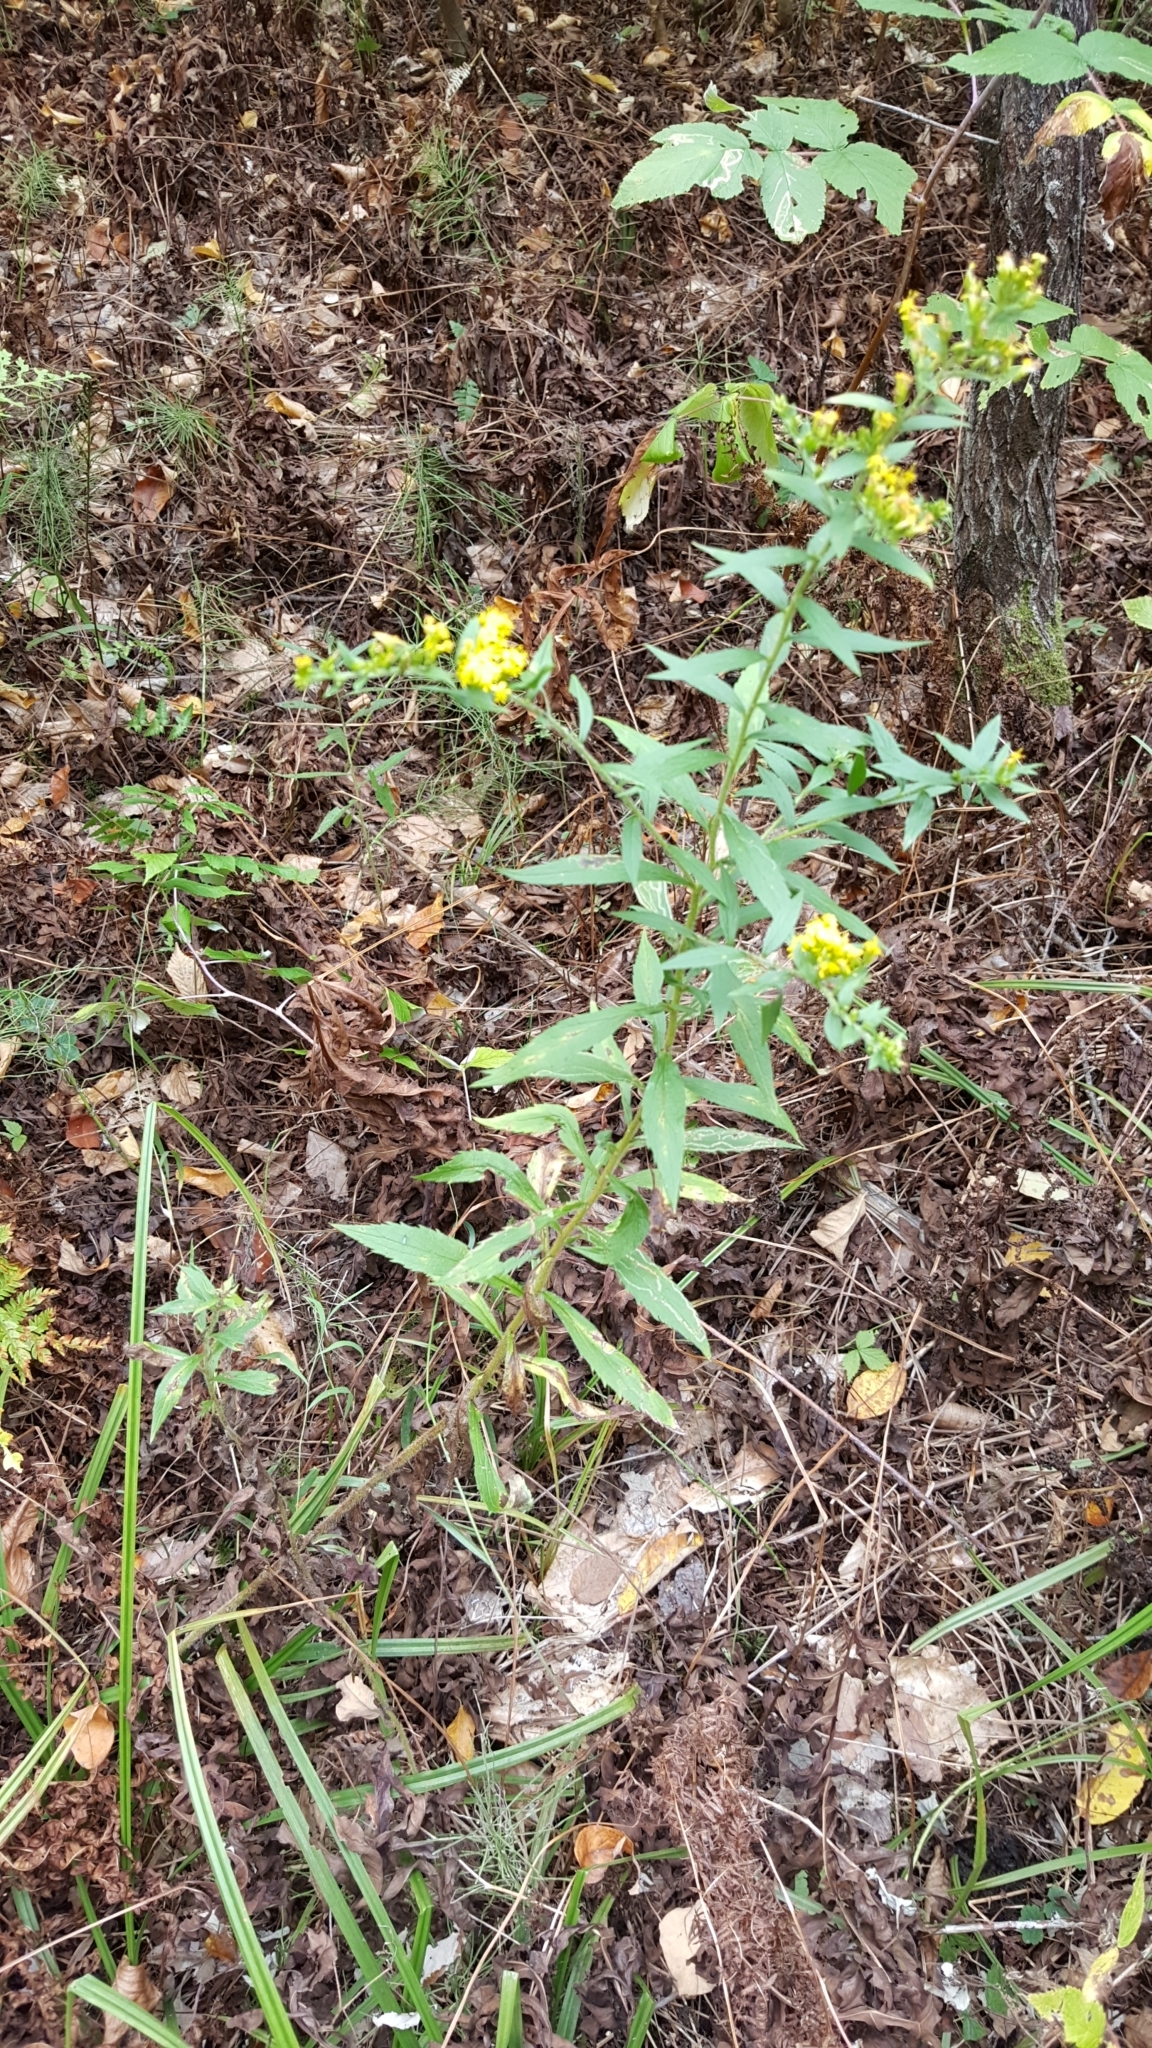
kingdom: Plantae
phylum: Tracheophyta
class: Magnoliopsida
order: Asterales
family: Asteraceae
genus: Solidago
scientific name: Solidago rugosa
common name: Rough-stemmed goldenrod
